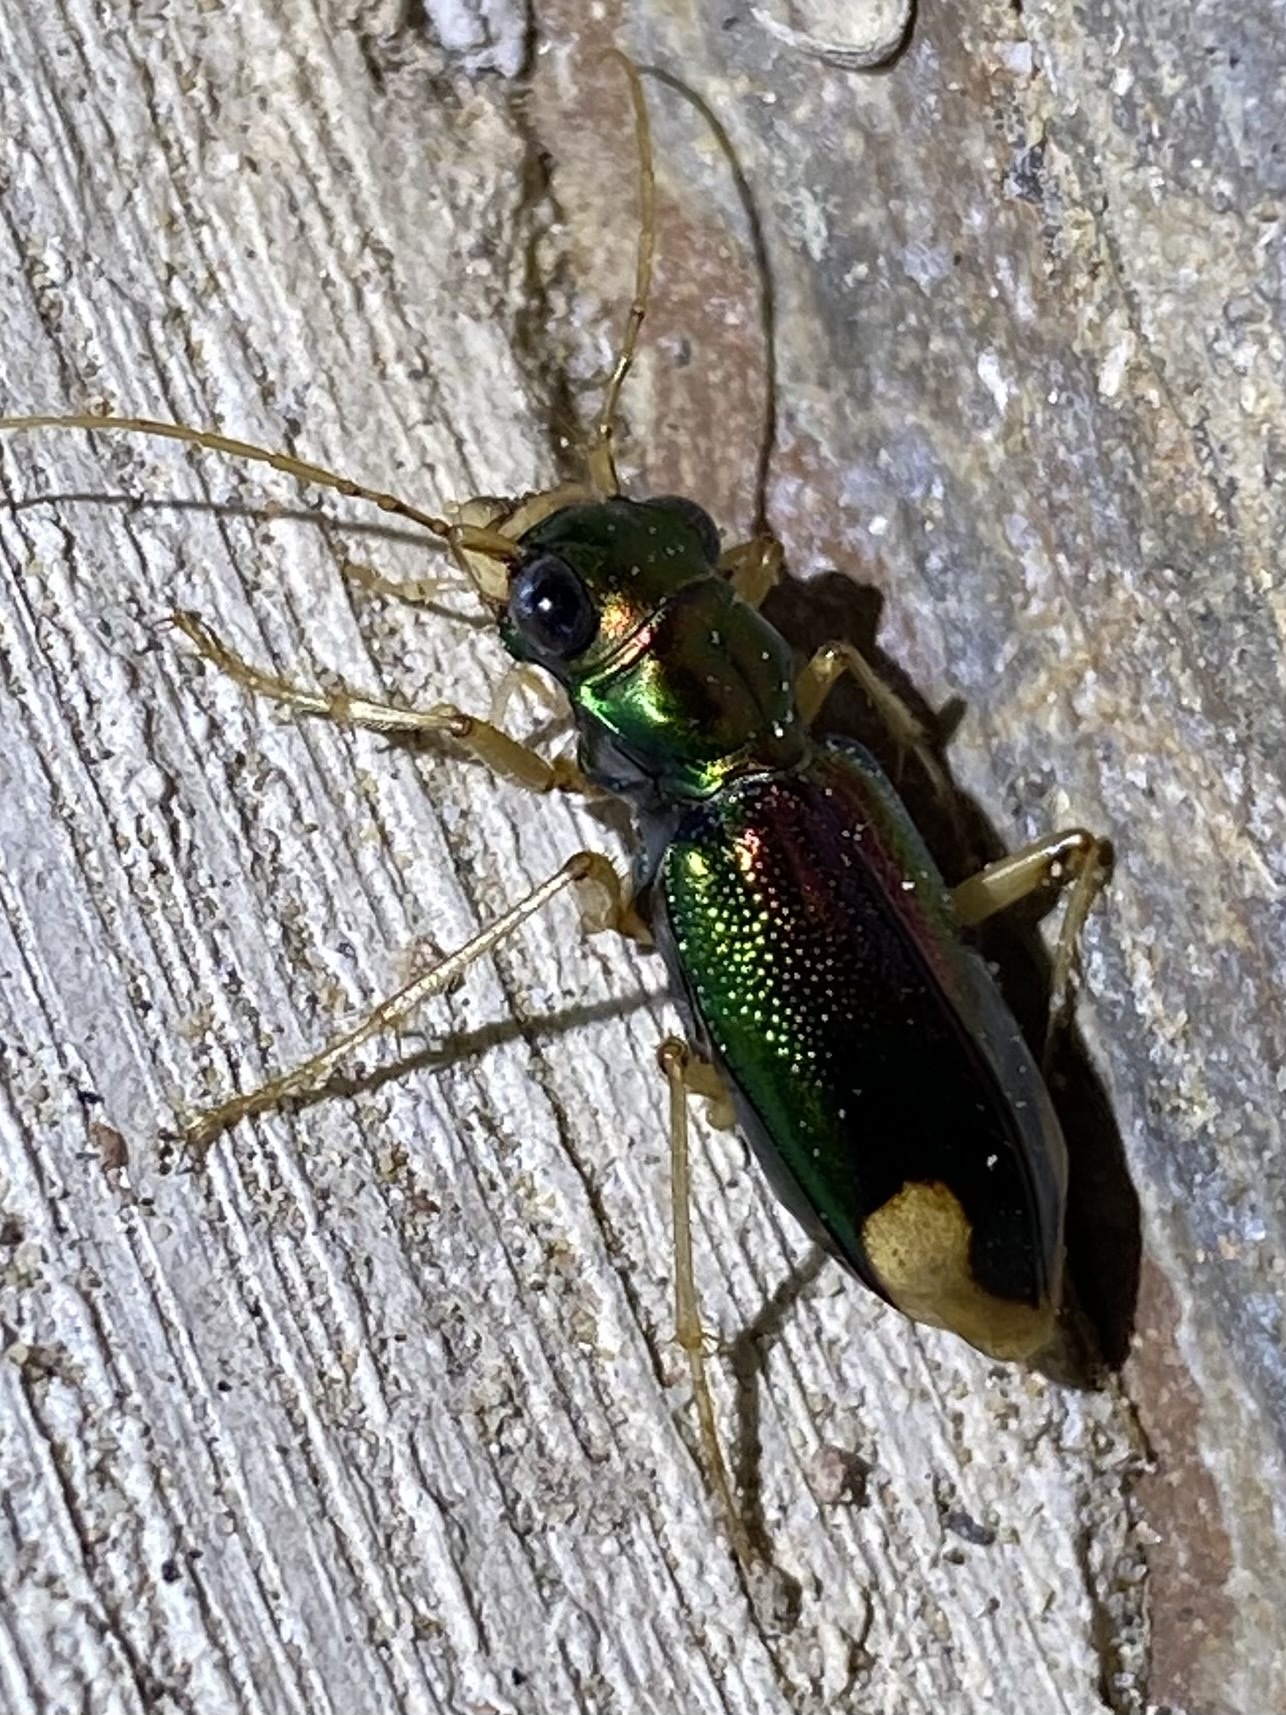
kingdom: Animalia
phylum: Arthropoda
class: Insecta
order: Coleoptera
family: Carabidae
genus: Tetracha
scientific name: Tetracha carolina
